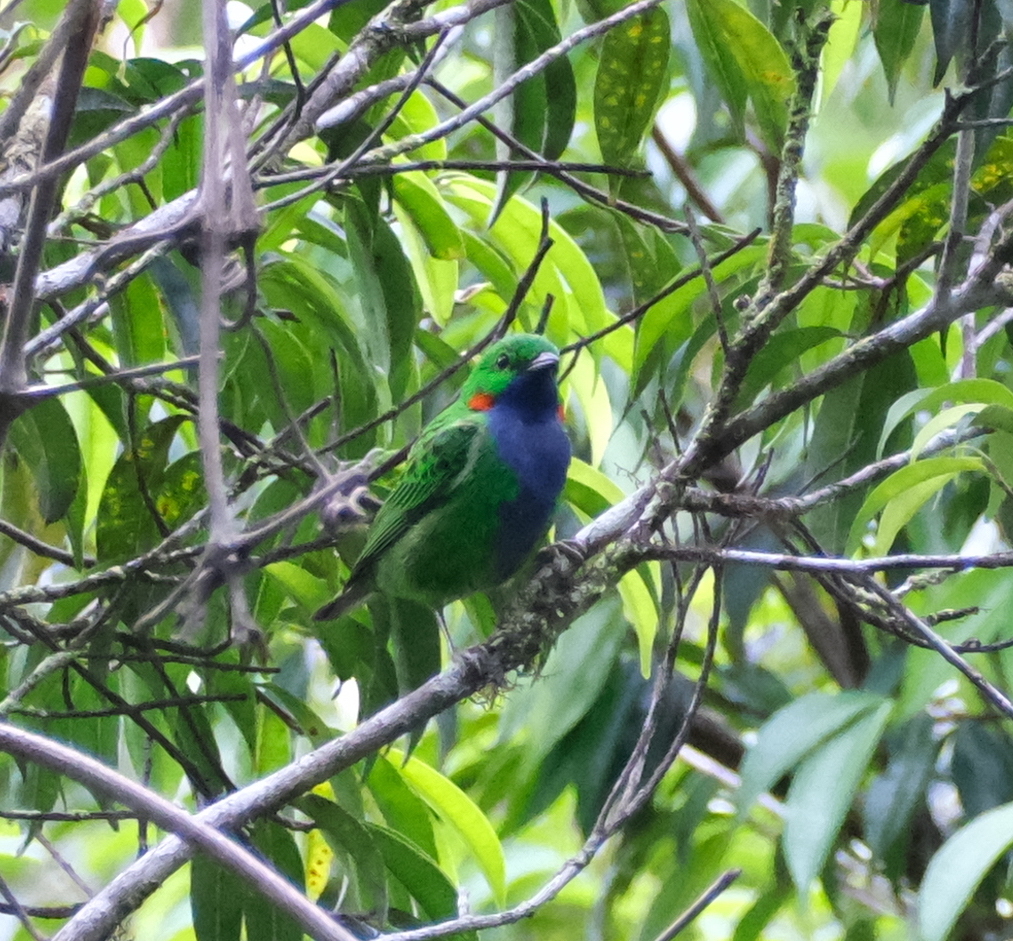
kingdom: Animalia
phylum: Chordata
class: Aves
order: Passeriformes
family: Thraupidae
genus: Chlorochrysa
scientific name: Chlorochrysa calliparaea
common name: Orange-eared tanager
